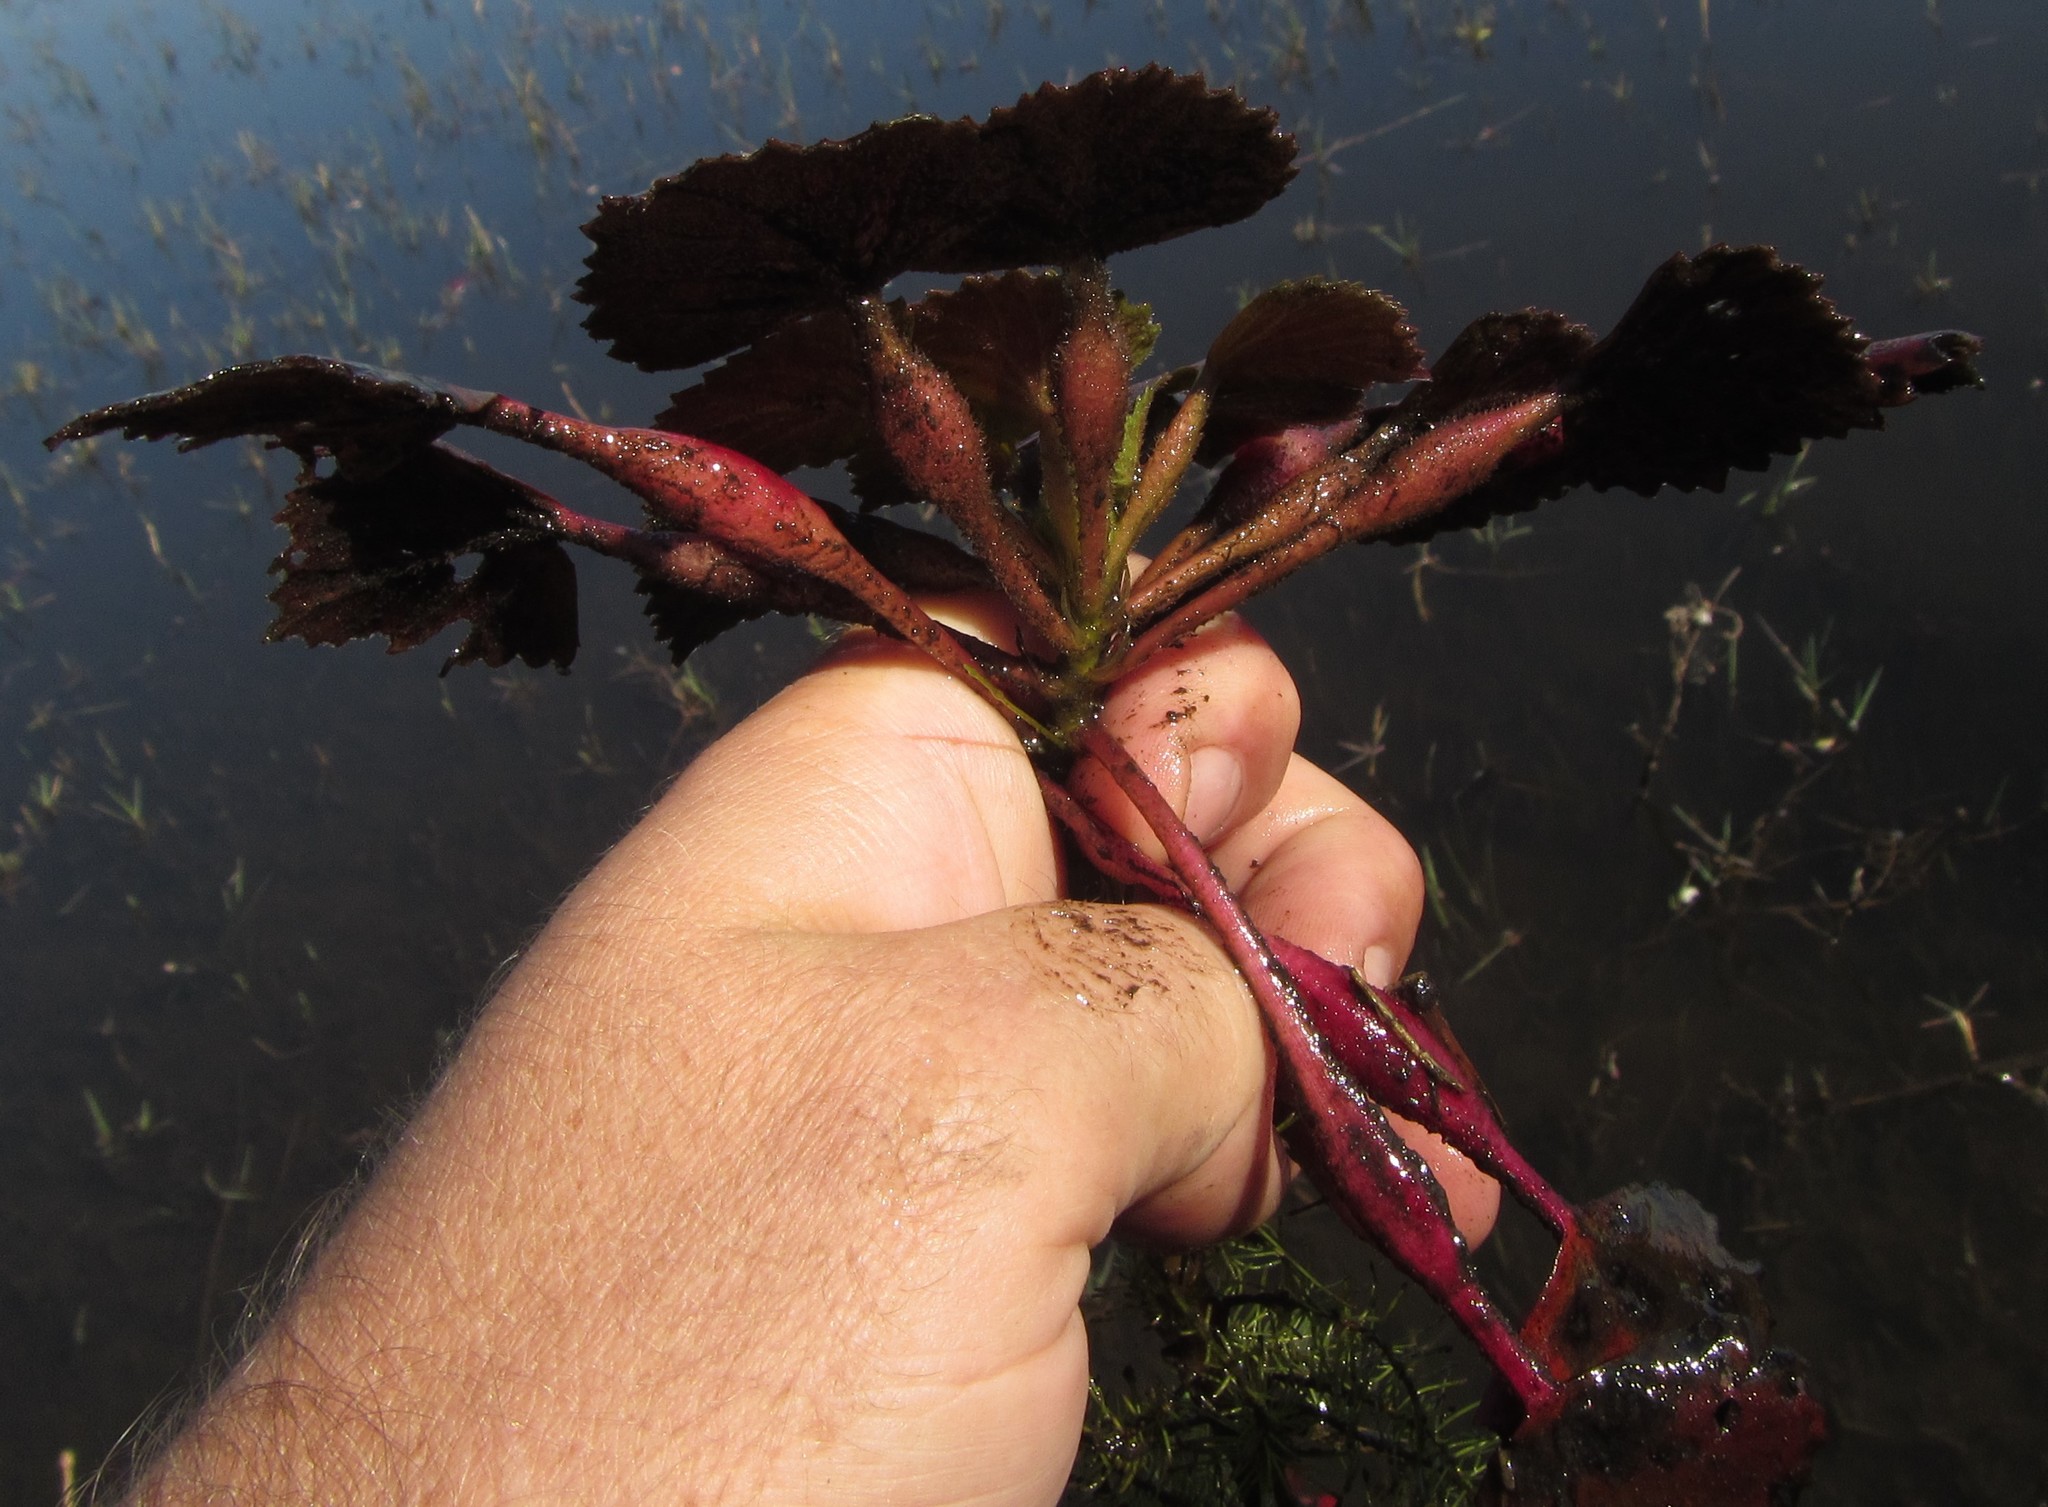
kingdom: Plantae
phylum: Tracheophyta
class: Magnoliopsida
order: Myrtales
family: Lythraceae
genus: Trapa
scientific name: Trapa natans
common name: Water chestnut
